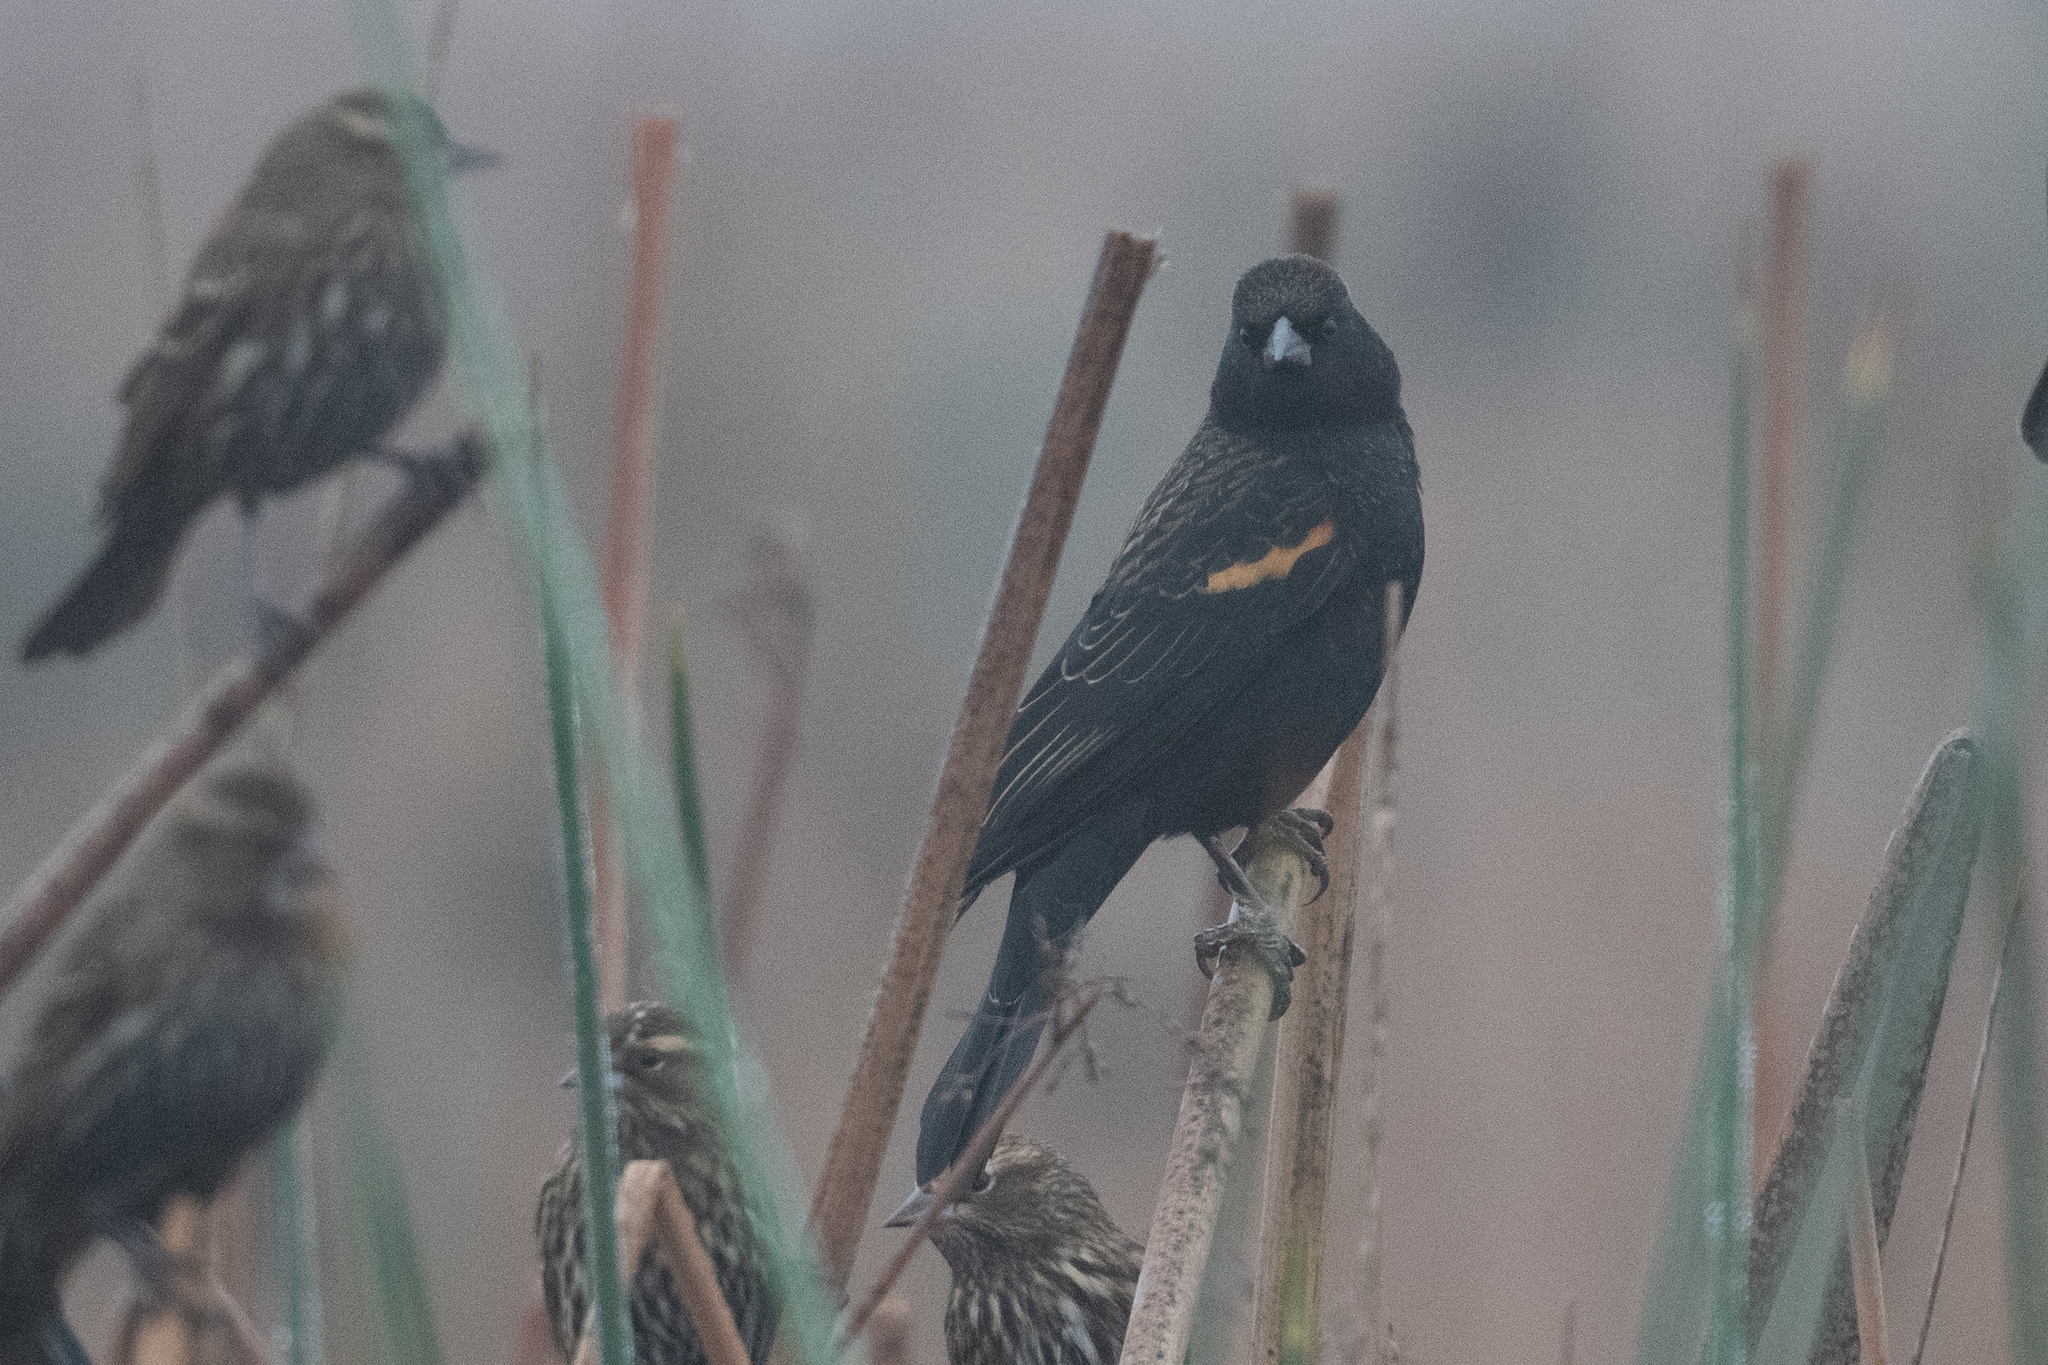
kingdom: Animalia
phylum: Chordata
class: Aves
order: Passeriformes
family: Icteridae
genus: Agelaius
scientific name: Agelaius phoeniceus
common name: Red-winged blackbird
